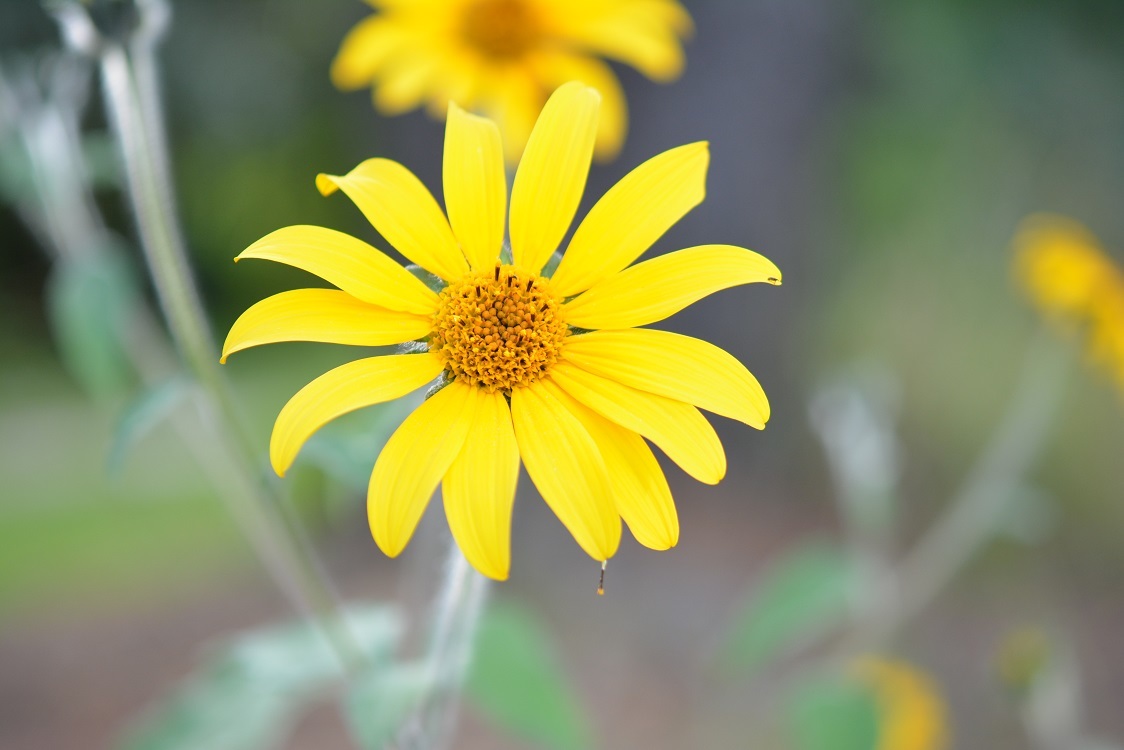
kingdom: Plantae
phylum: Tracheophyta
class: Magnoliopsida
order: Asterales
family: Asteraceae
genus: Tithonia
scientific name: Tithonia tubaeformis
